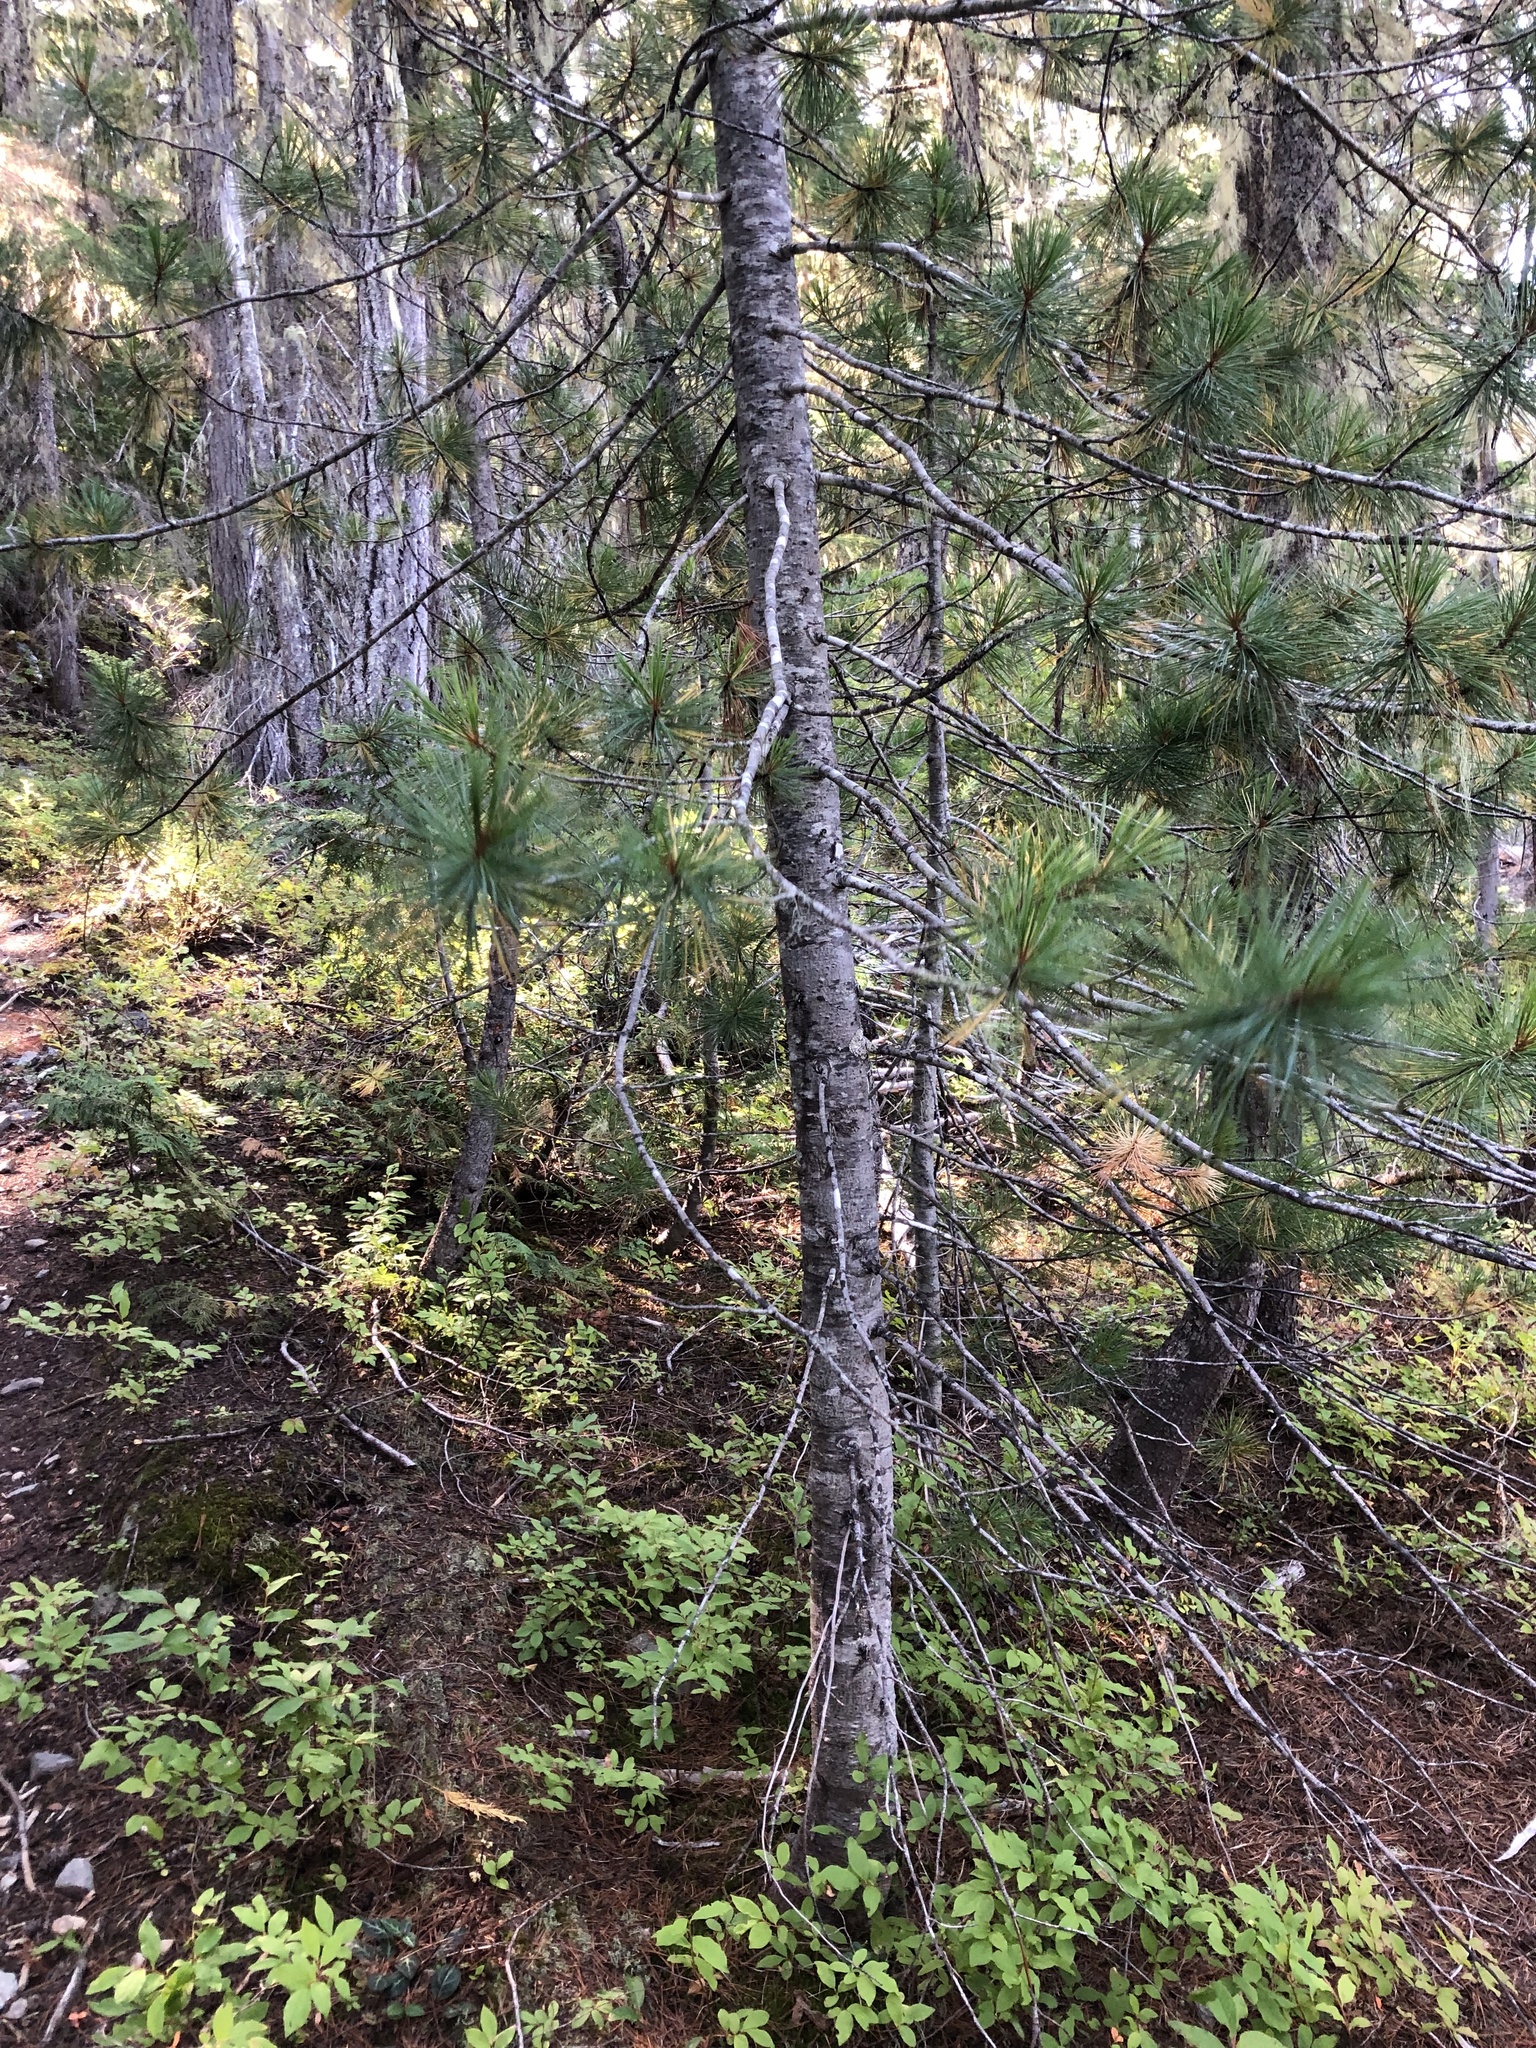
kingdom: Plantae
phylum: Tracheophyta
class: Pinopsida
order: Pinales
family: Pinaceae
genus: Pinus
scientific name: Pinus monticola
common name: Western white pine
